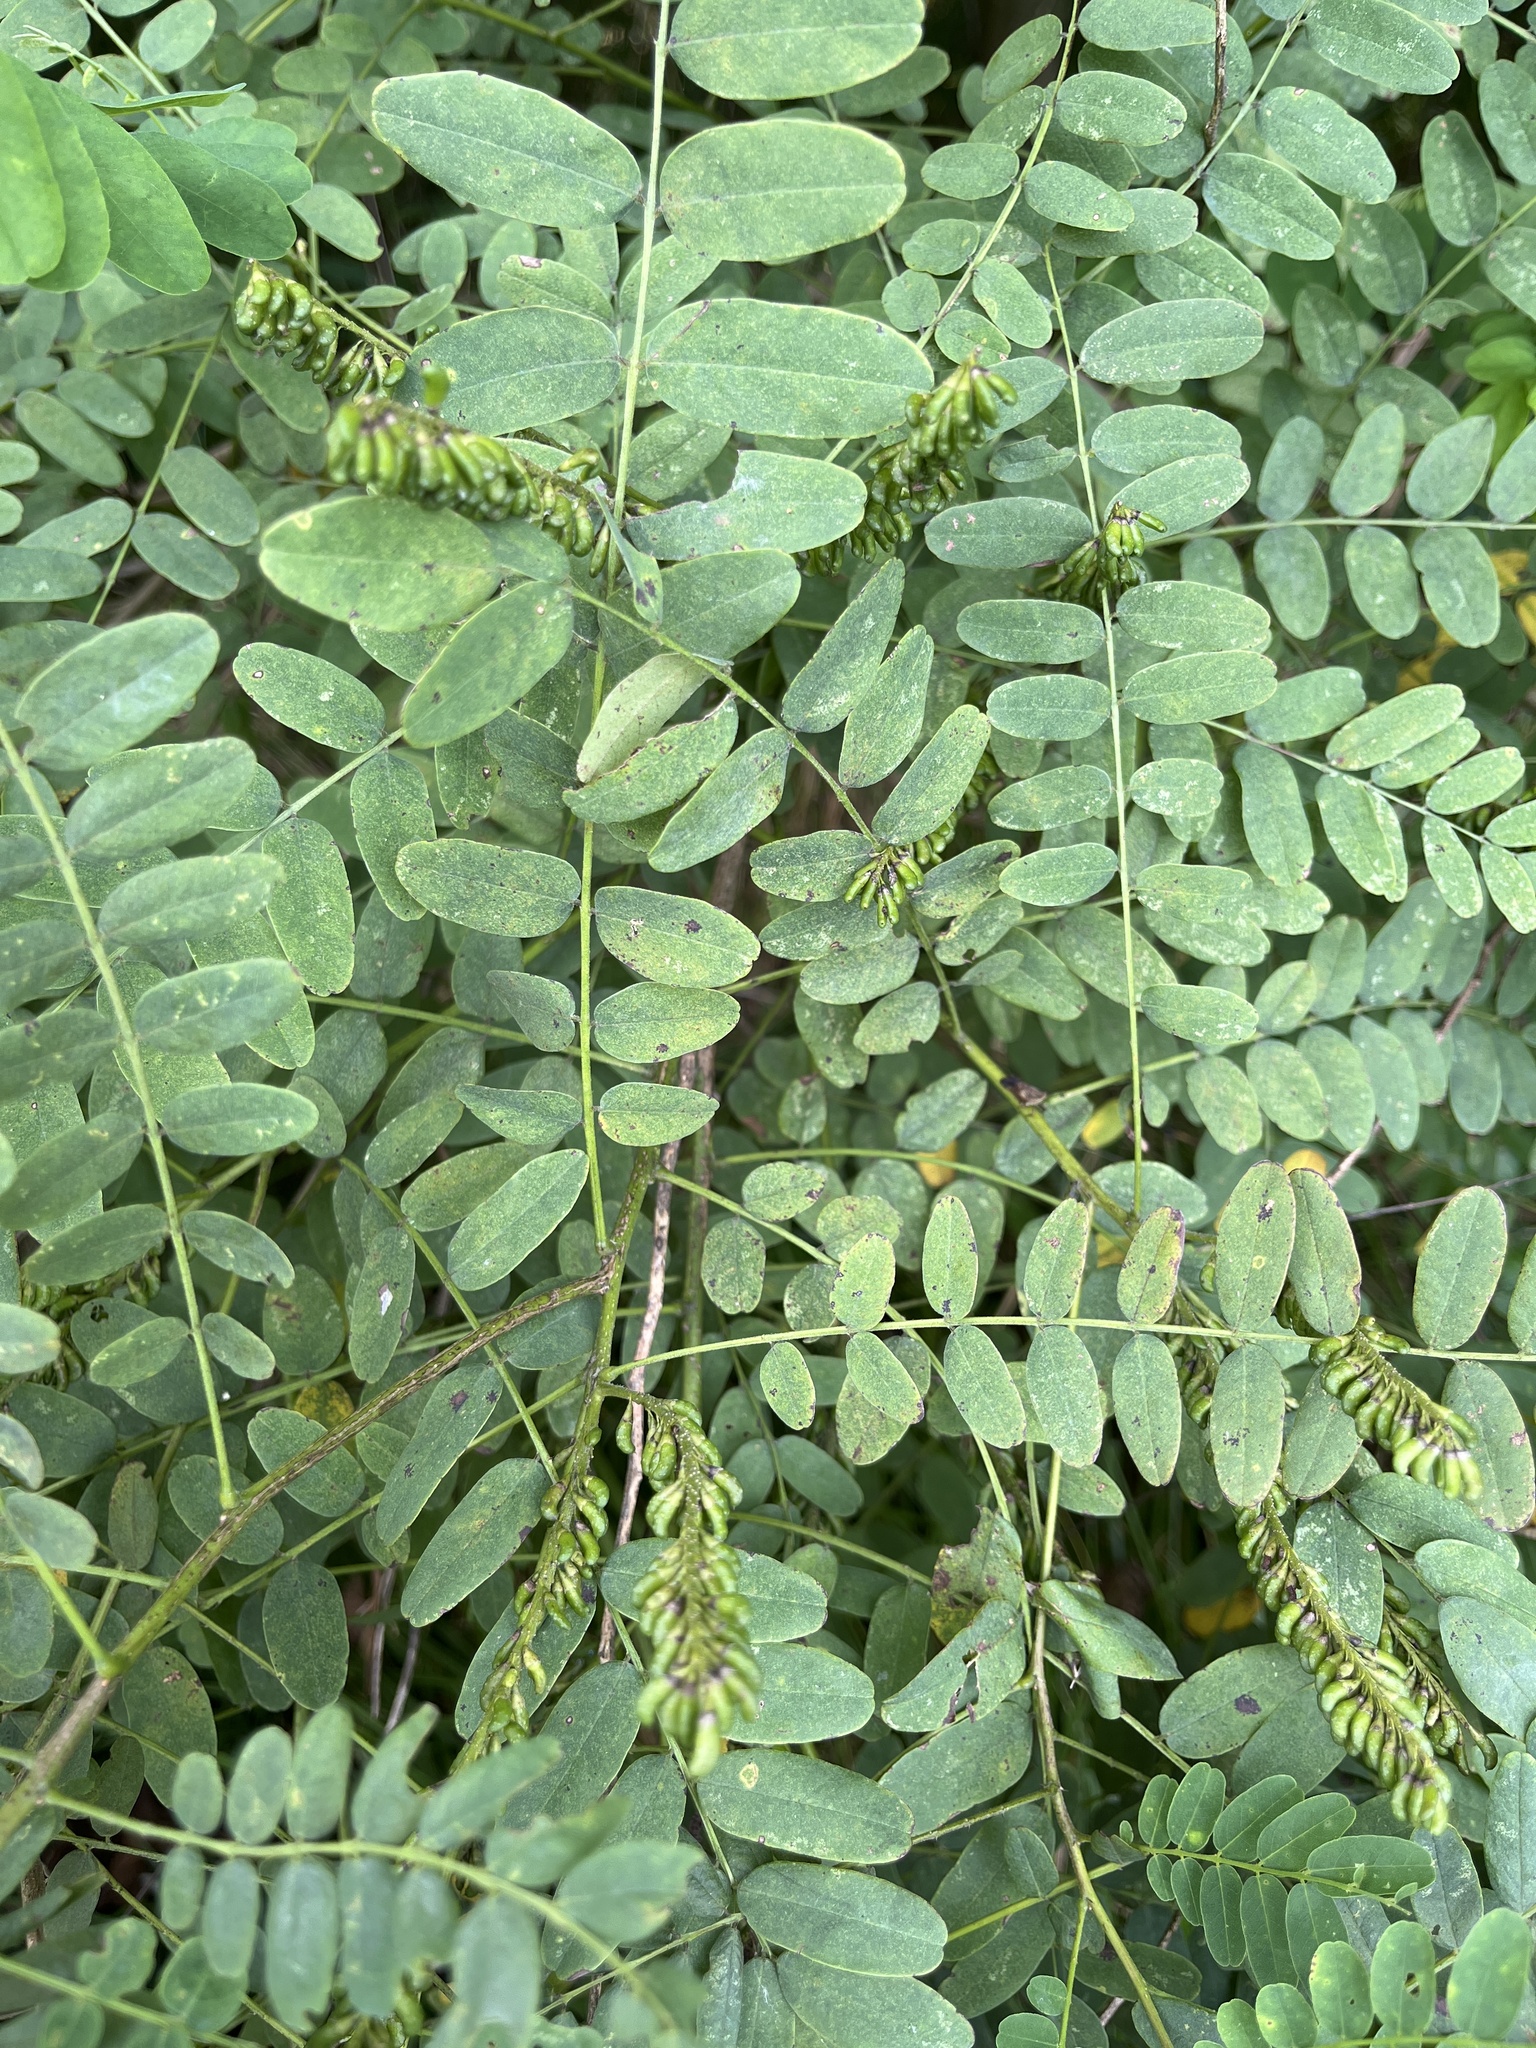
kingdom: Plantae
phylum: Tracheophyta
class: Magnoliopsida
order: Fabales
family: Fabaceae
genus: Amorpha
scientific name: Amorpha fruticosa
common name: False indigo
